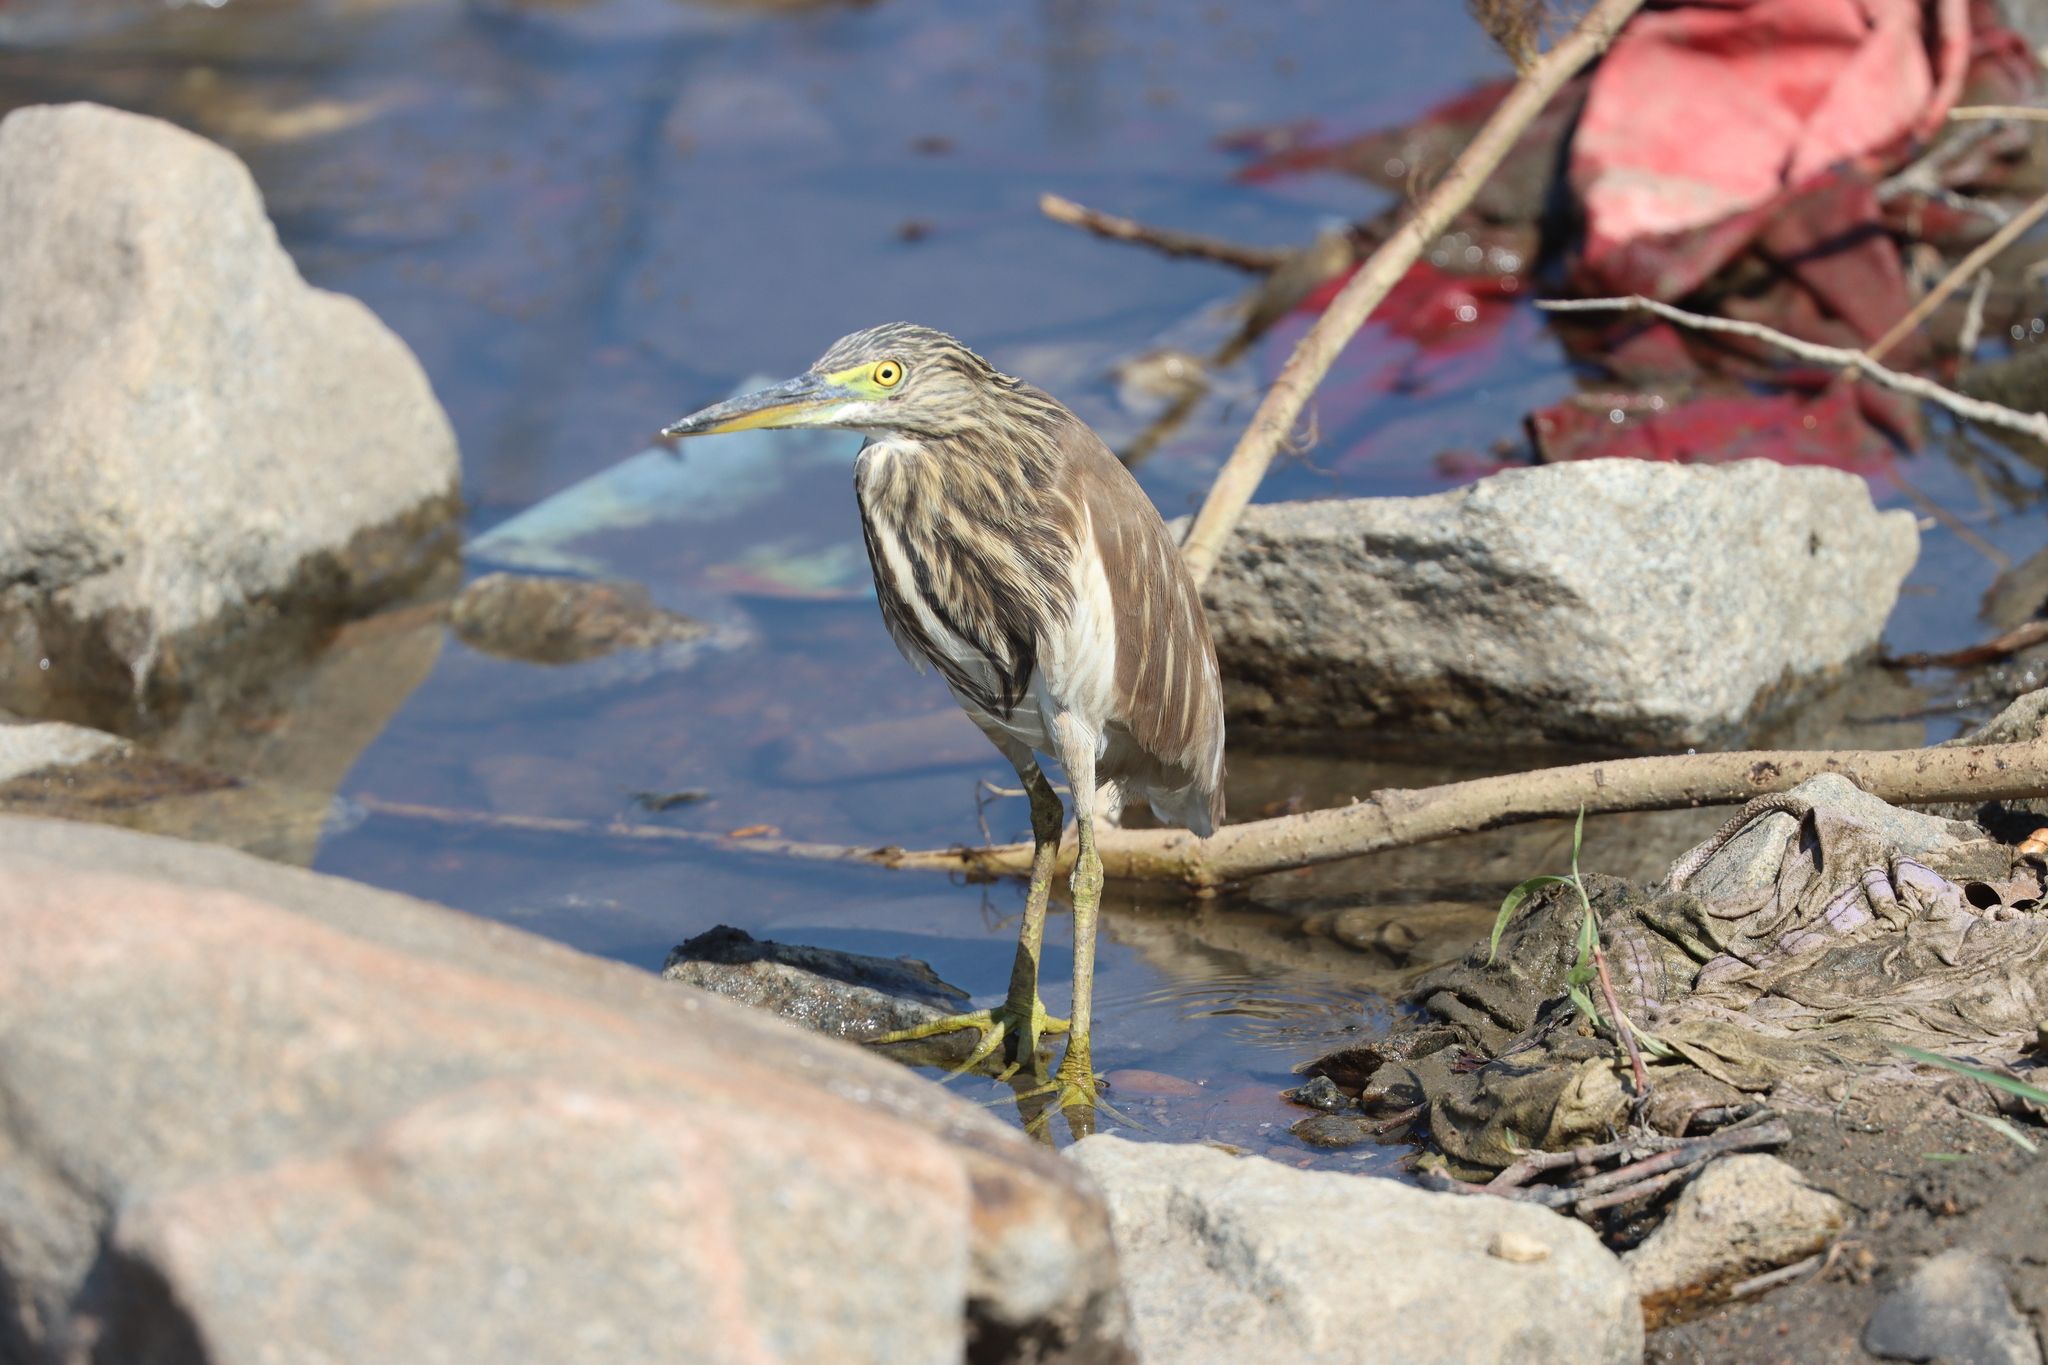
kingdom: Animalia
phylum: Chordata
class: Aves
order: Pelecaniformes
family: Ardeidae
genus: Ardeola
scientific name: Ardeola grayii
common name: Indian pond heron
